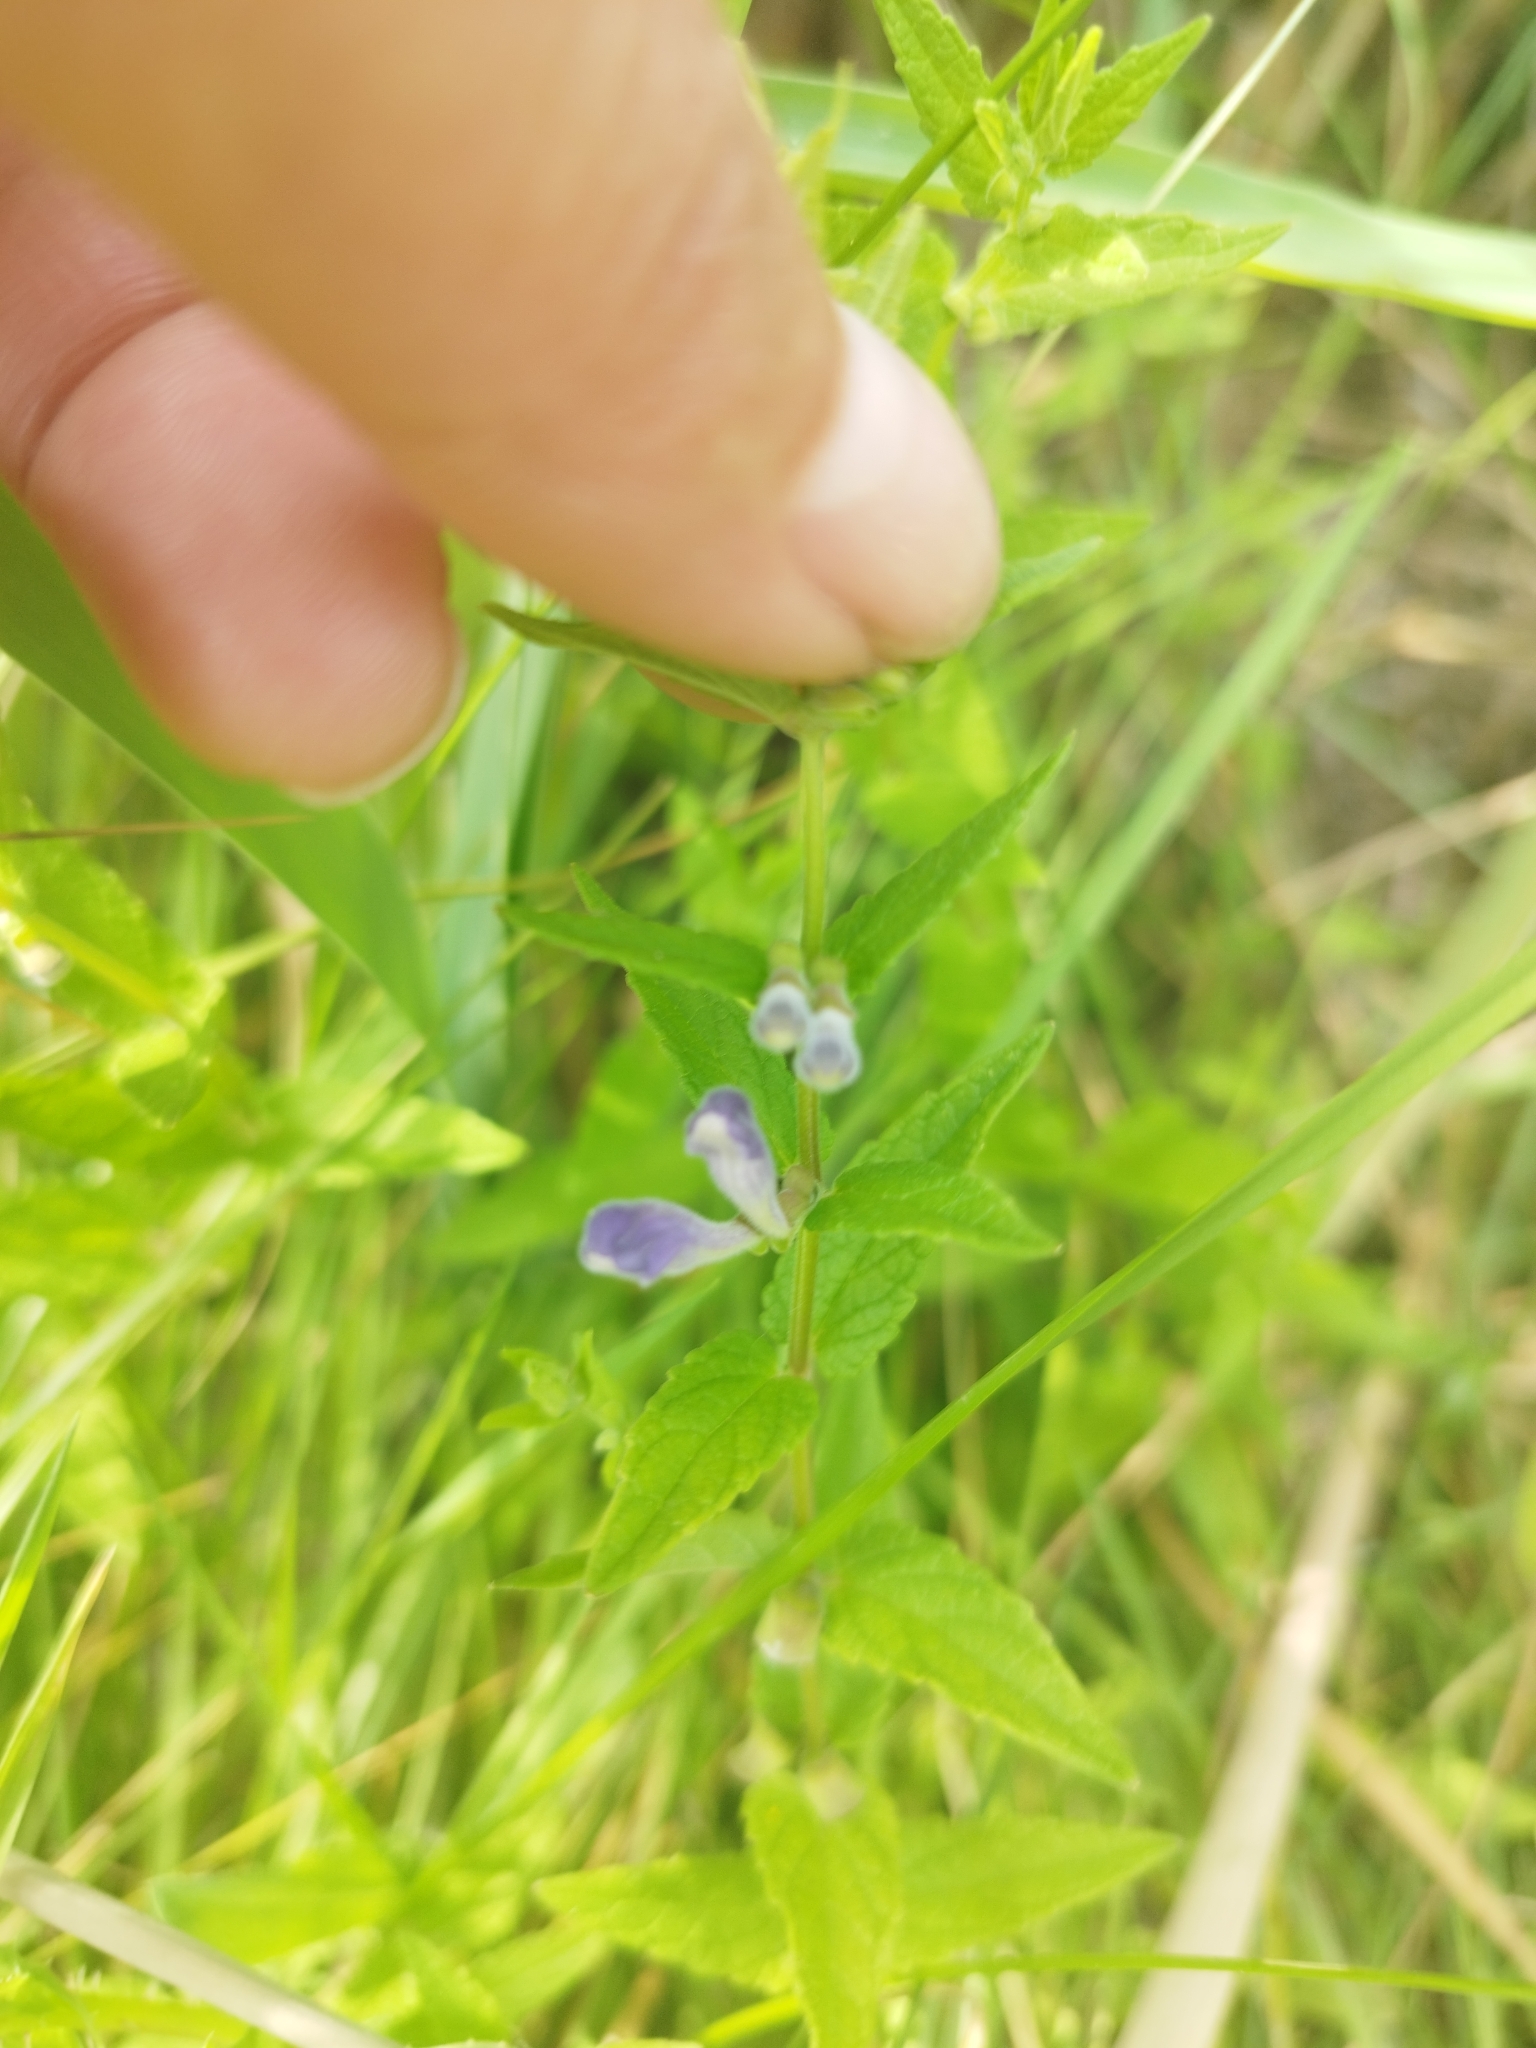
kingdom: Plantae
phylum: Tracheophyta
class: Magnoliopsida
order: Lamiales
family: Lamiaceae
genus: Scutellaria
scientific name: Scutellaria galericulata
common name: Skullcap
